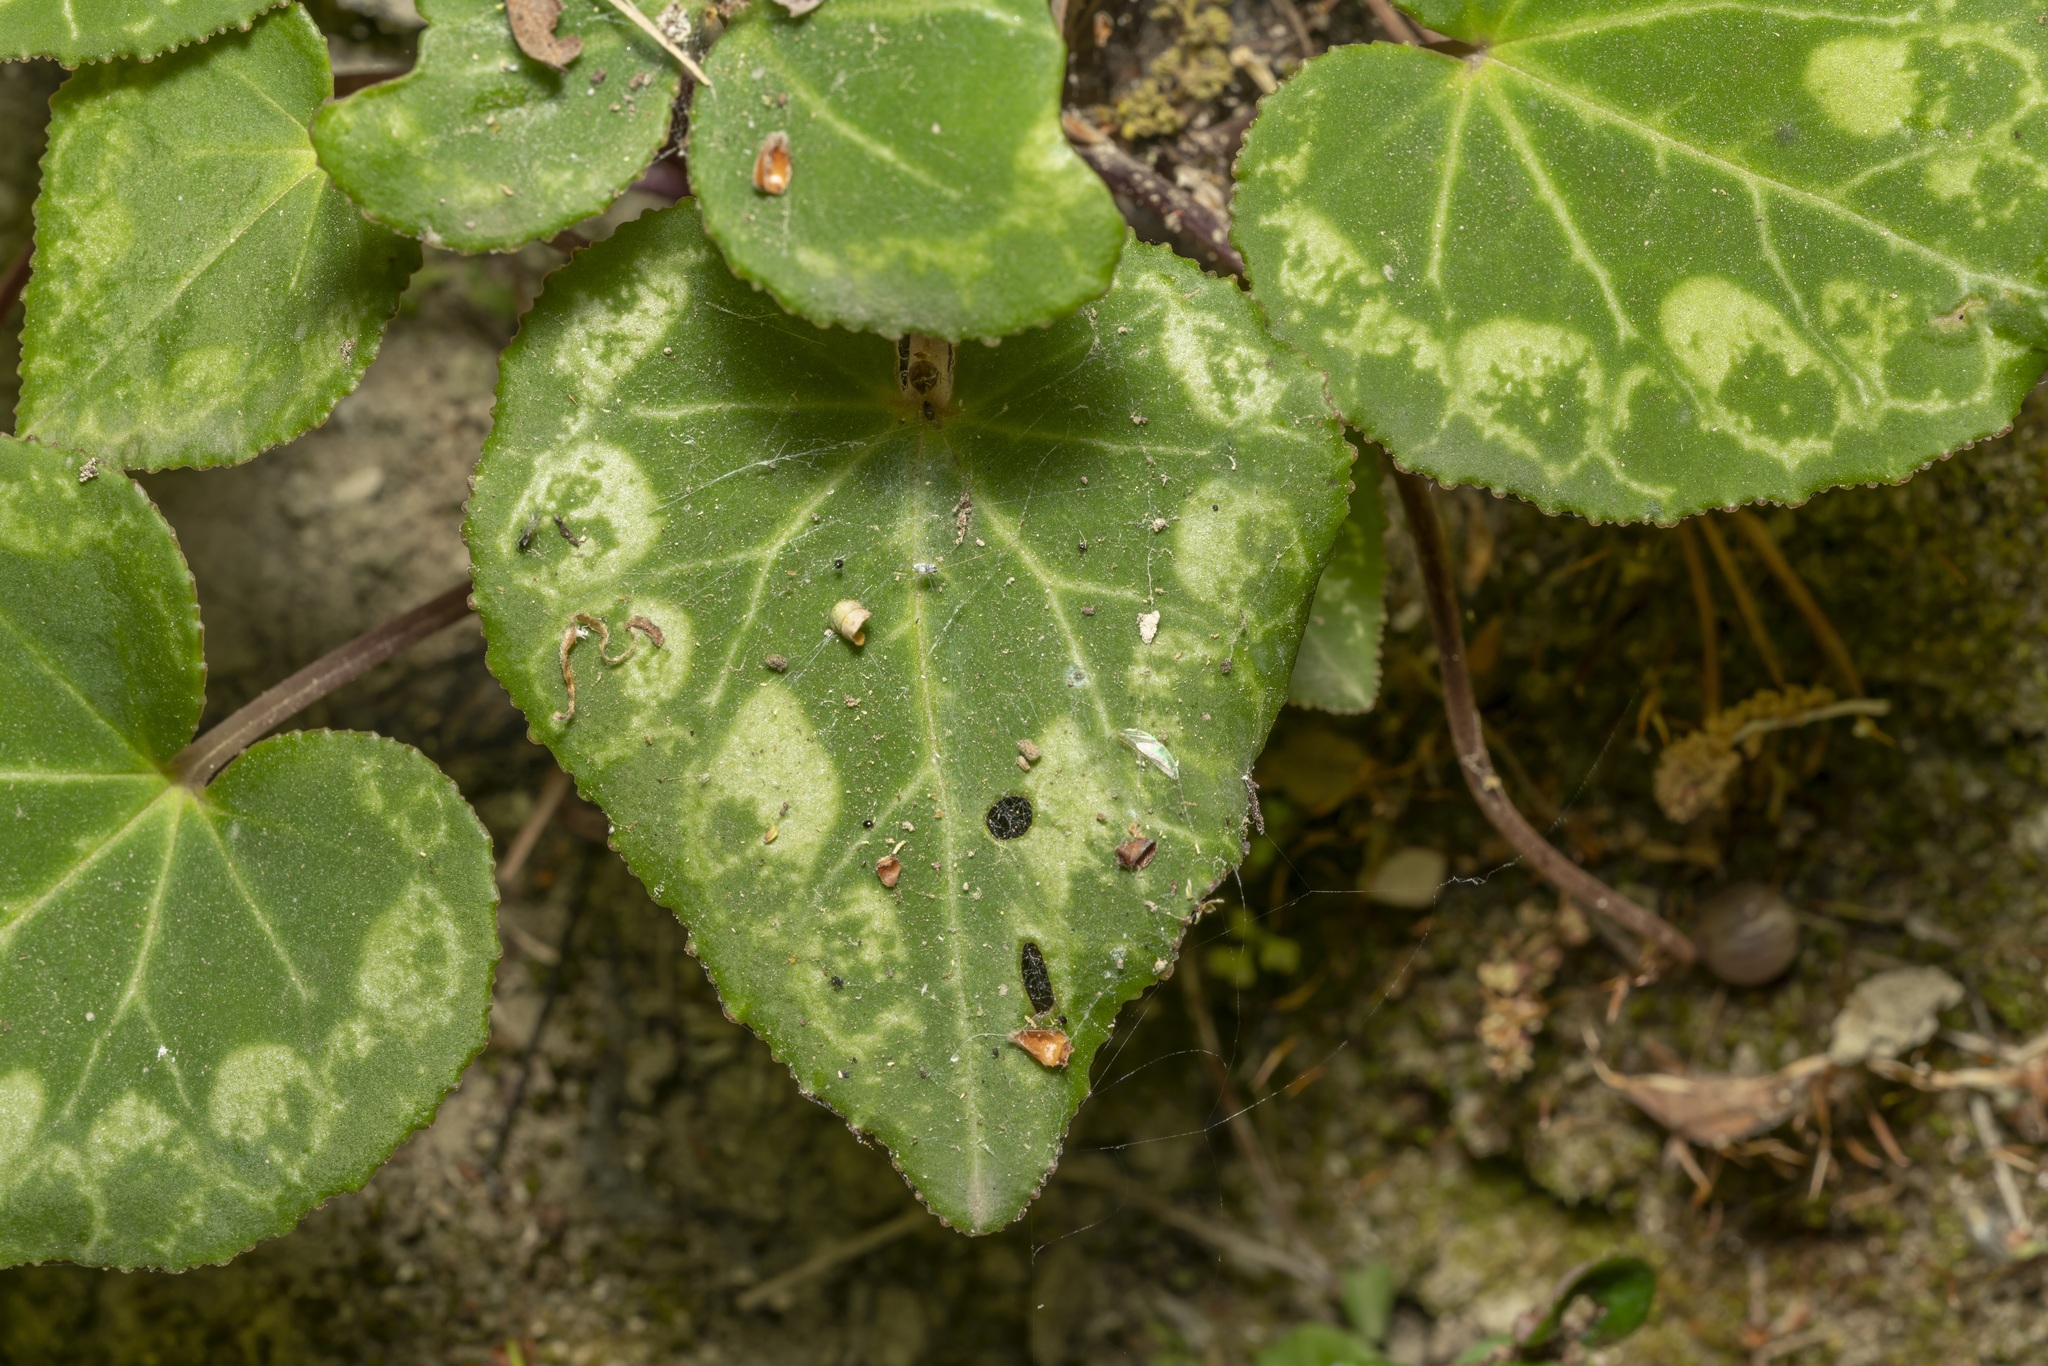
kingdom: Plantae
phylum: Tracheophyta
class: Magnoliopsida
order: Ericales
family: Primulaceae
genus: Cyclamen
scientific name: Cyclamen persicum
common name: Florist's cyclamen
